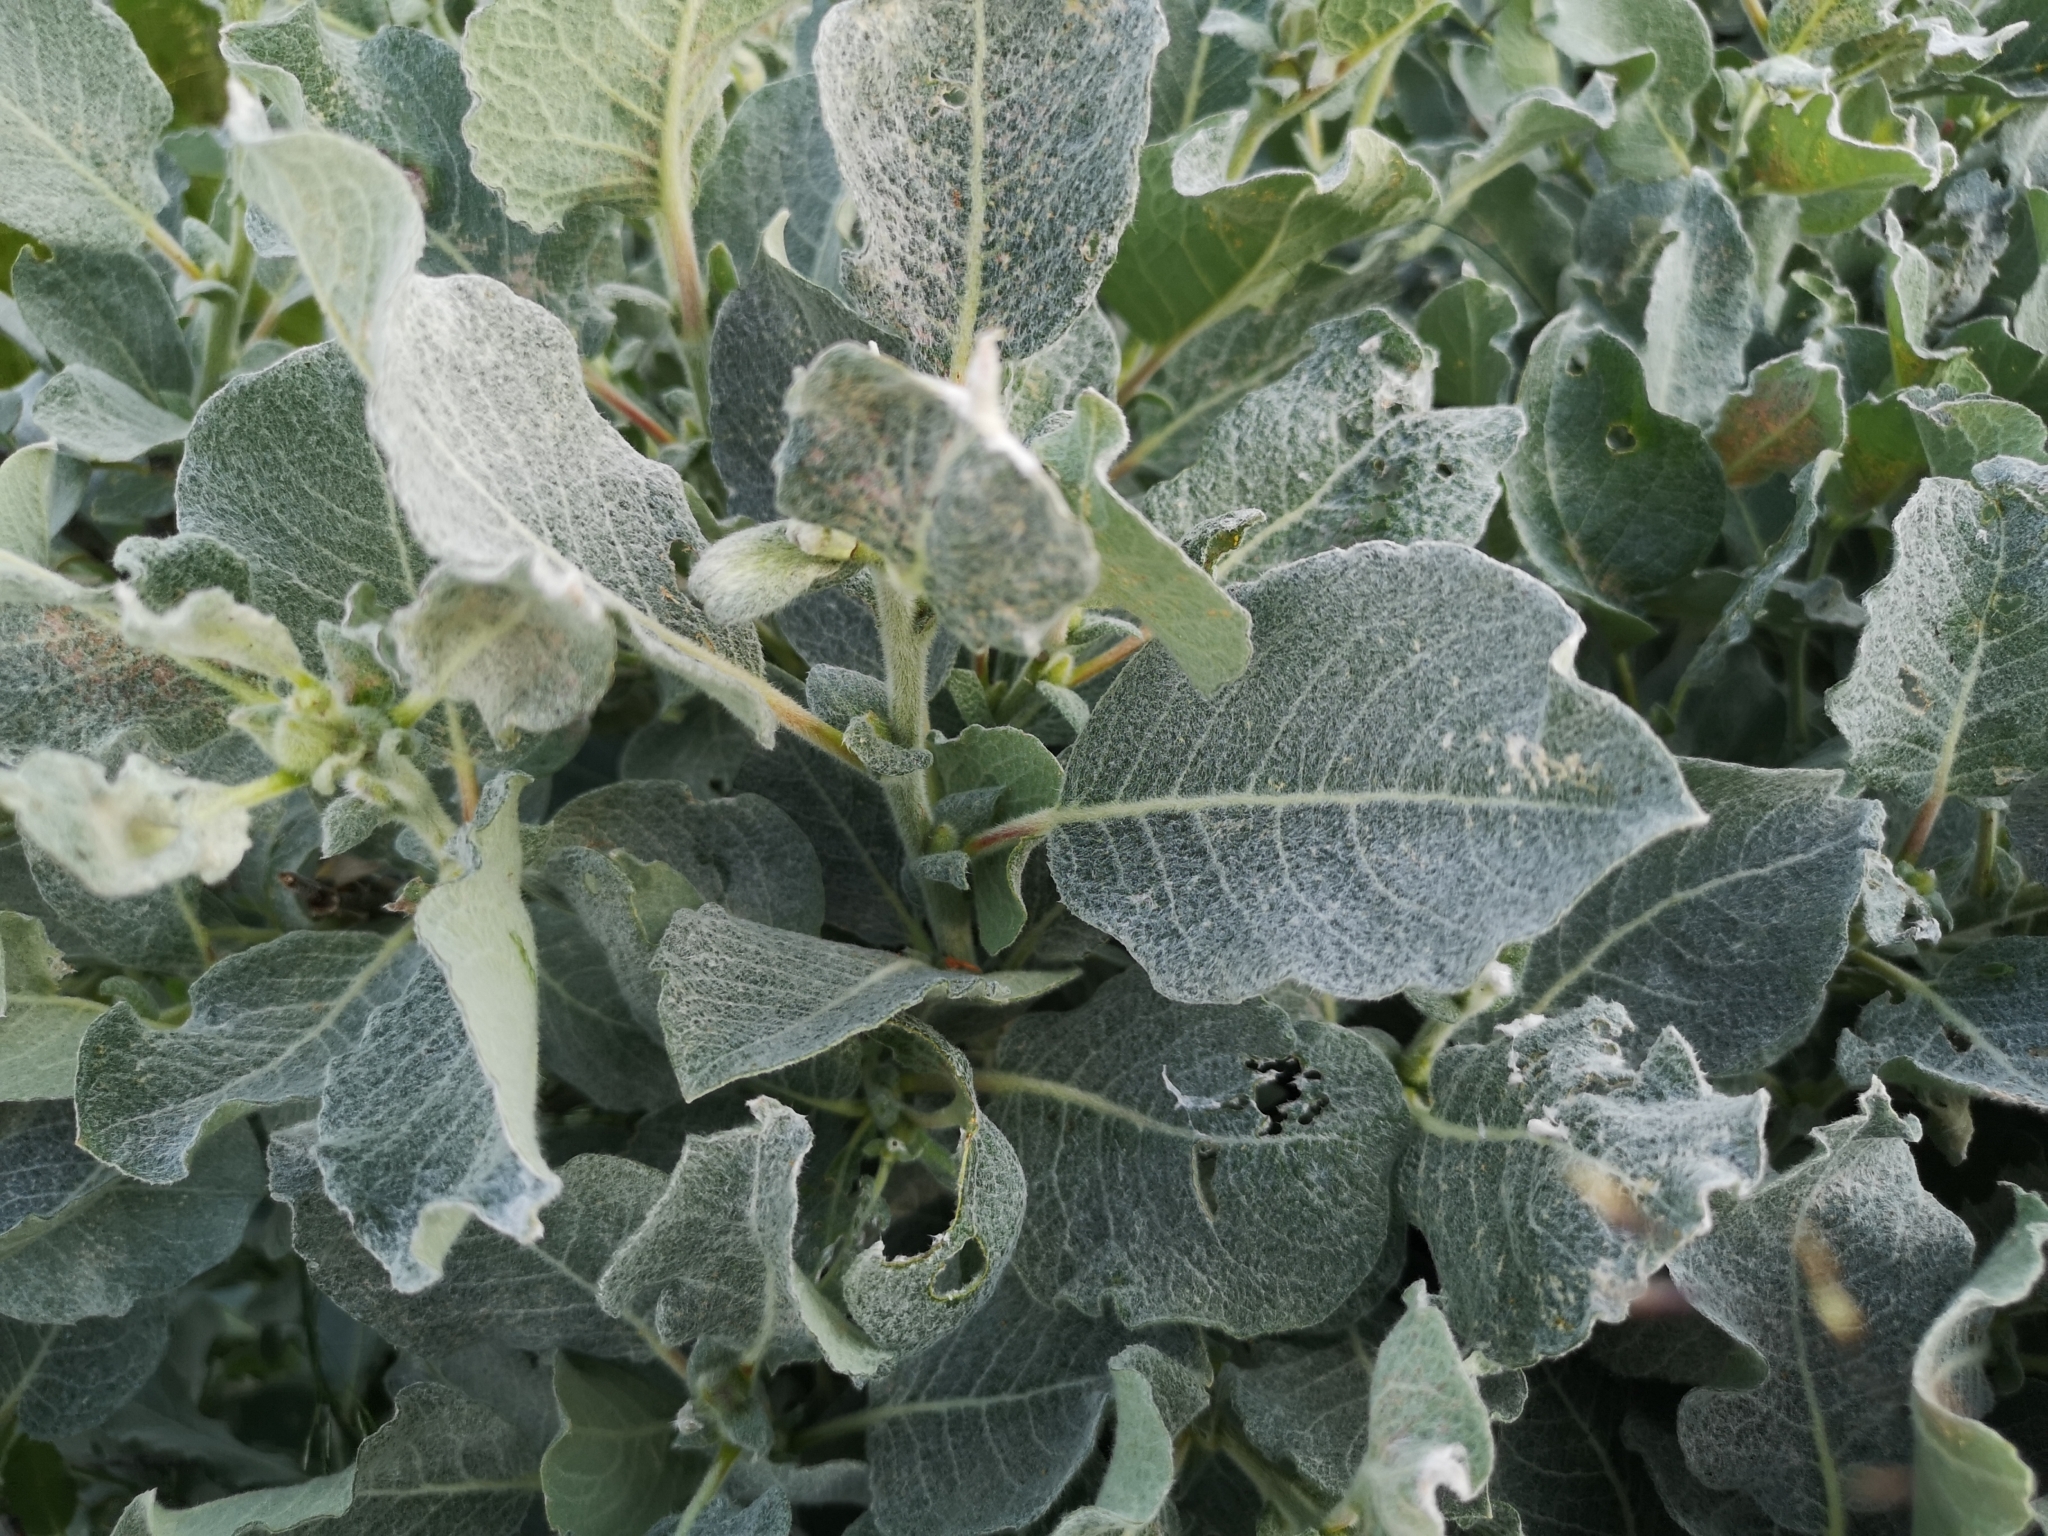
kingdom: Plantae
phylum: Tracheophyta
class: Magnoliopsida
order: Malpighiales
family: Salicaceae
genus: Salix
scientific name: Salix lanata
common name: Woolly willow
